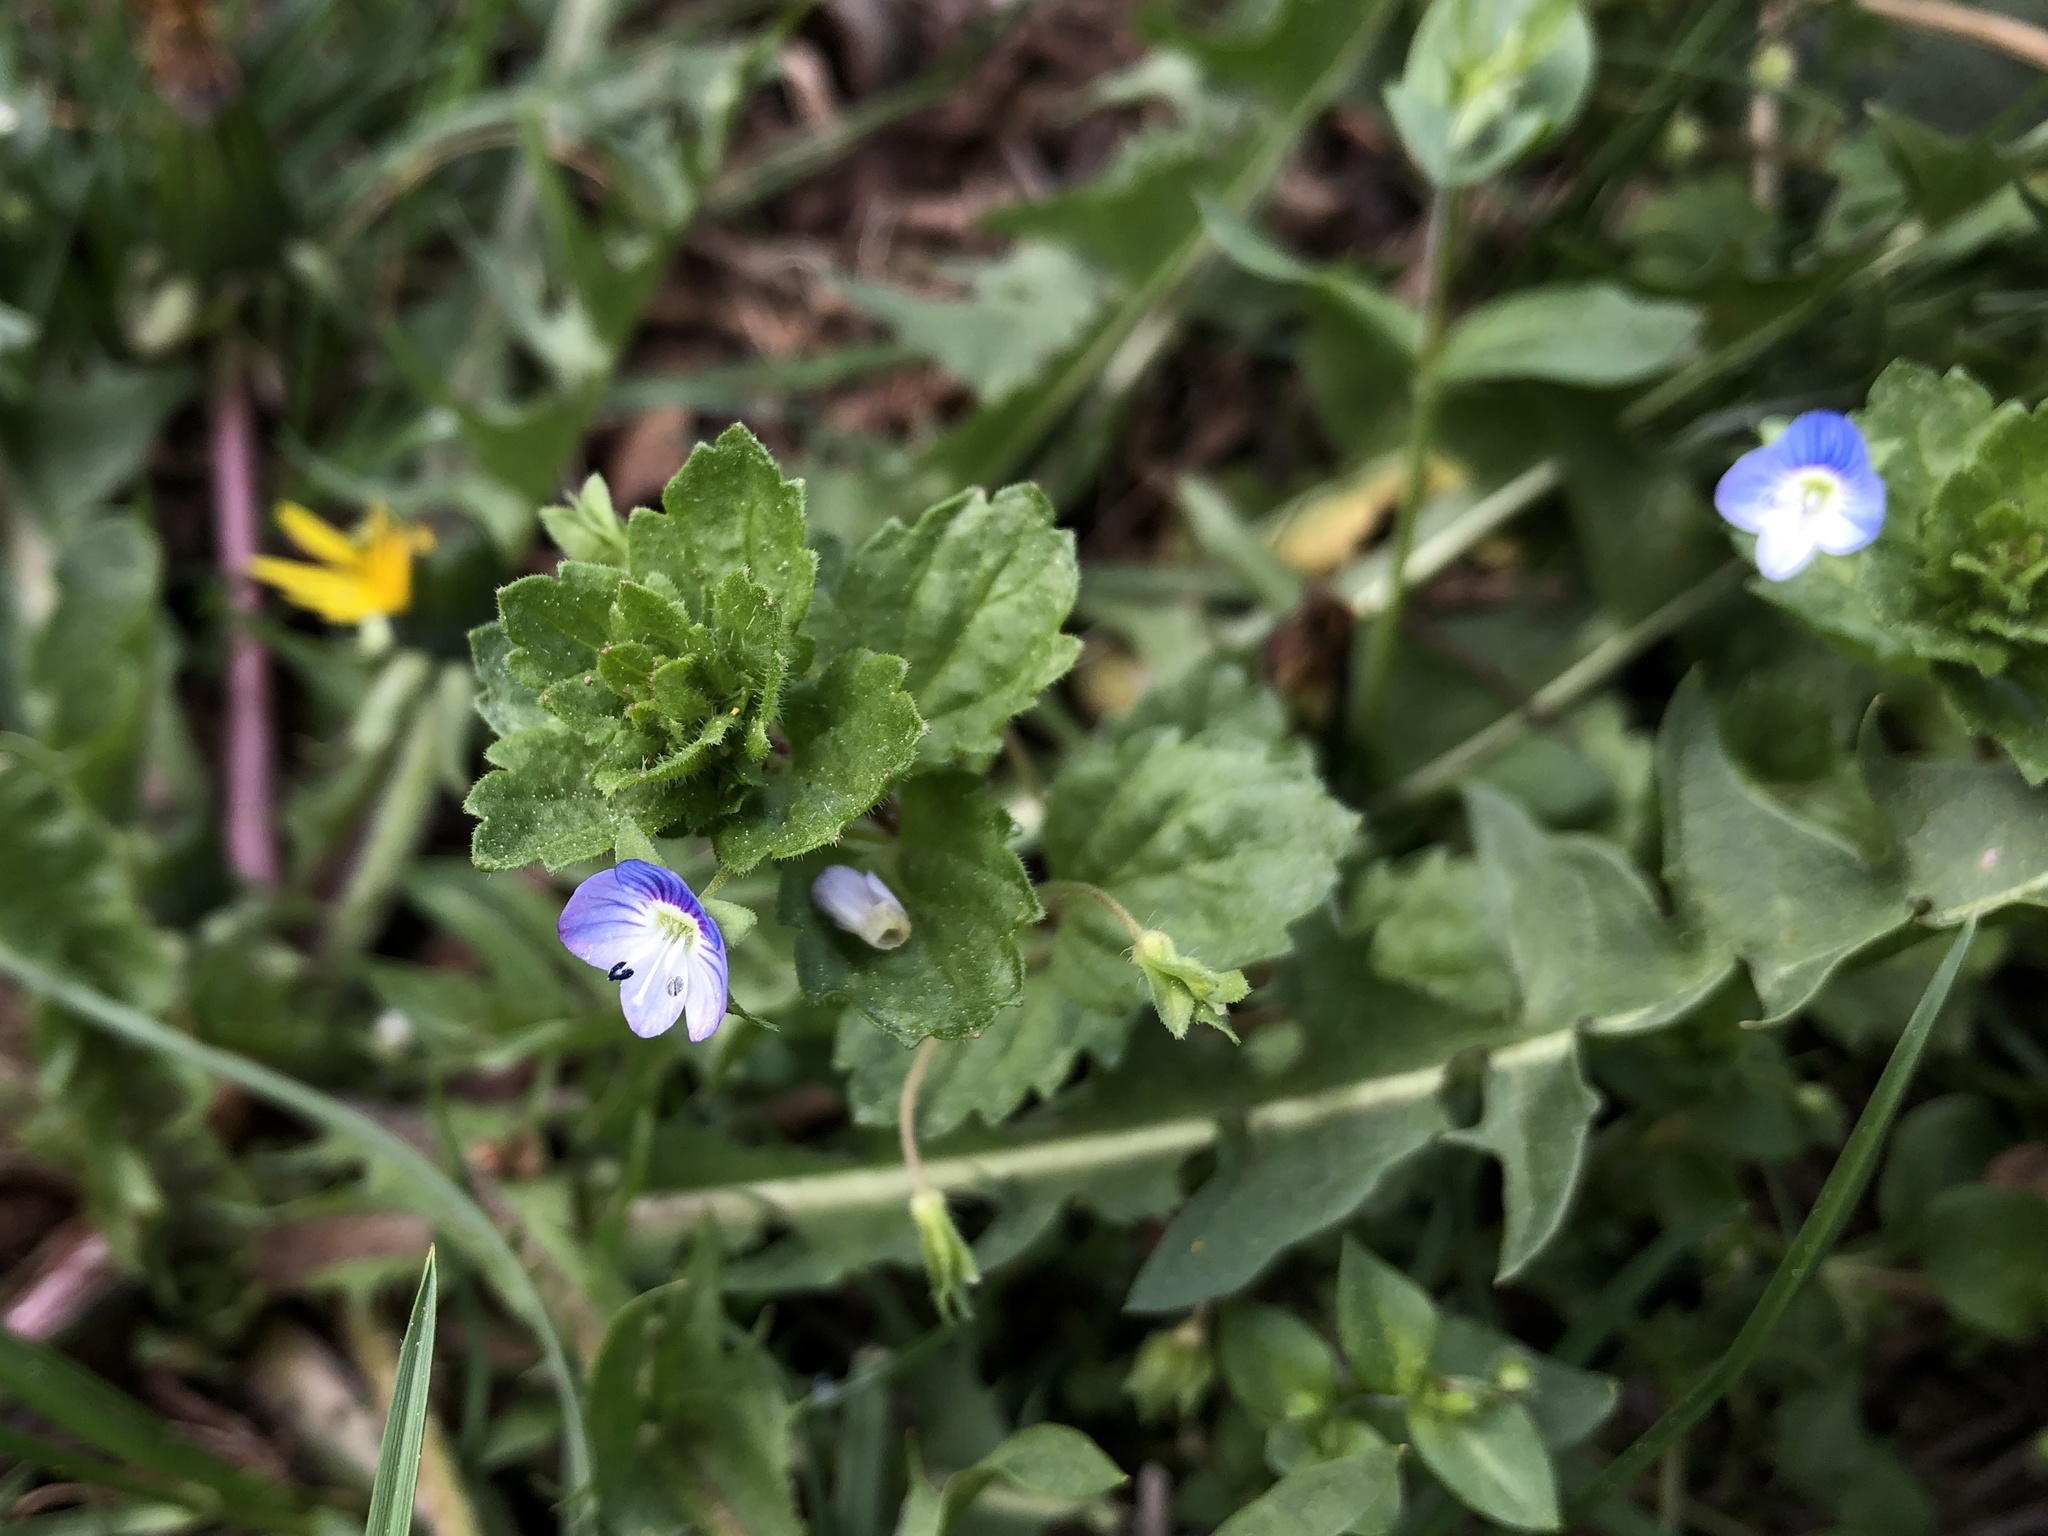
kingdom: Plantae
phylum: Tracheophyta
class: Magnoliopsida
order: Lamiales
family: Plantaginaceae
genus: Veronica
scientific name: Veronica persica
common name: Common field-speedwell
